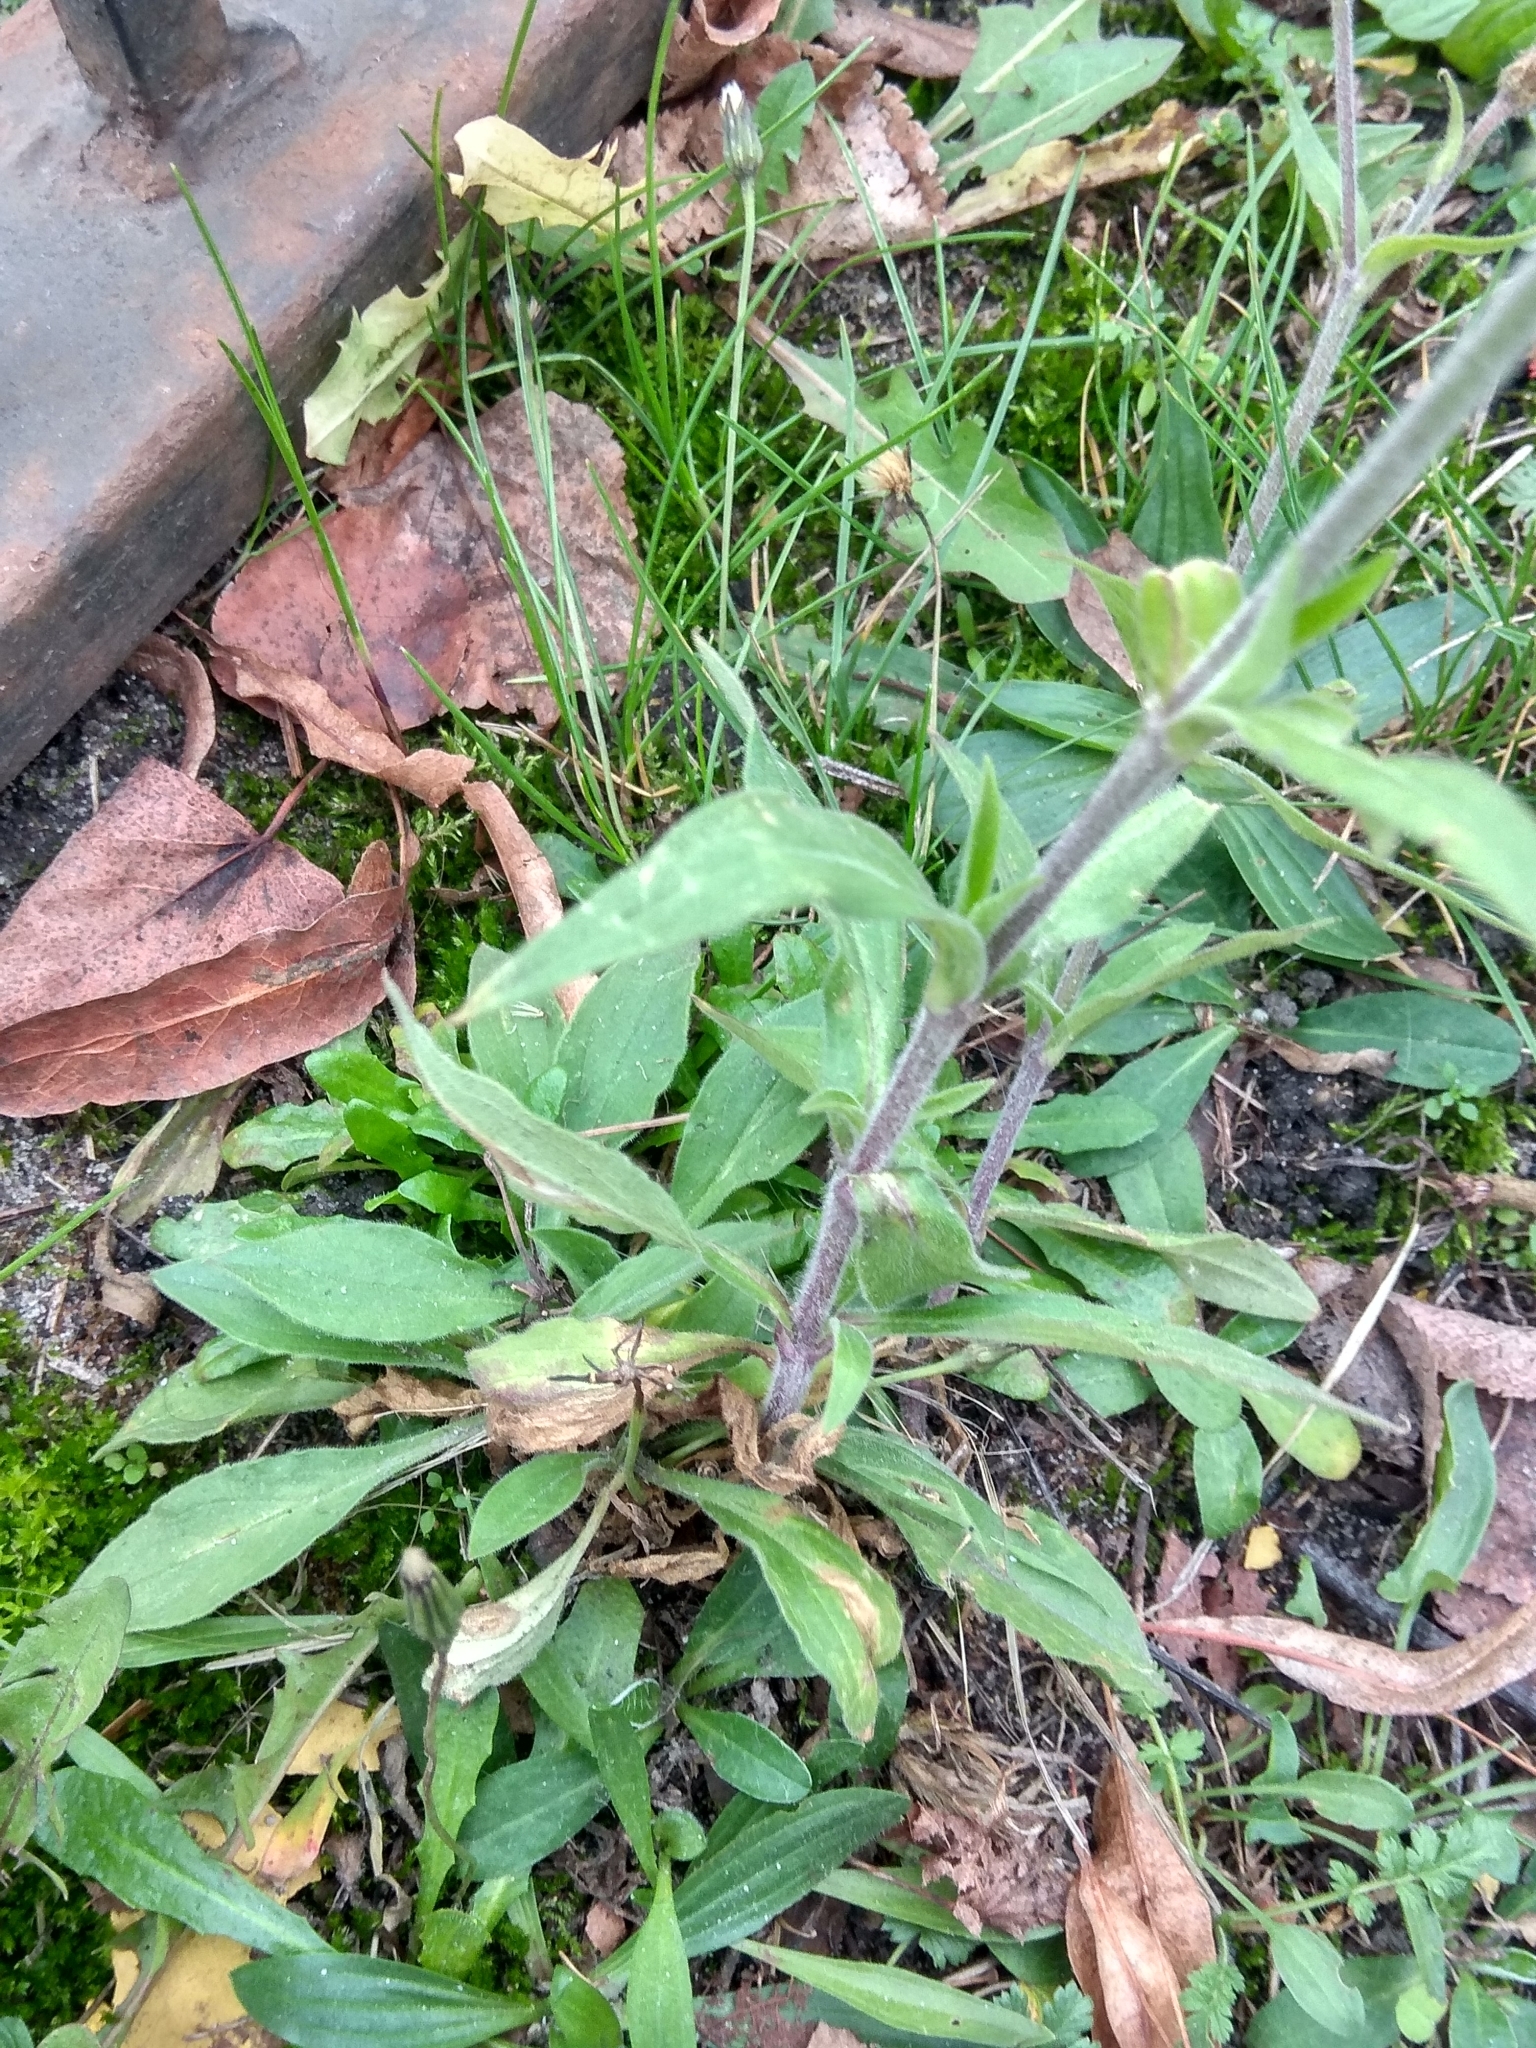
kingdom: Plantae
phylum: Tracheophyta
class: Magnoliopsida
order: Caryophyllales
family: Caryophyllaceae
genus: Silene
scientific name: Silene latifolia
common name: White campion
